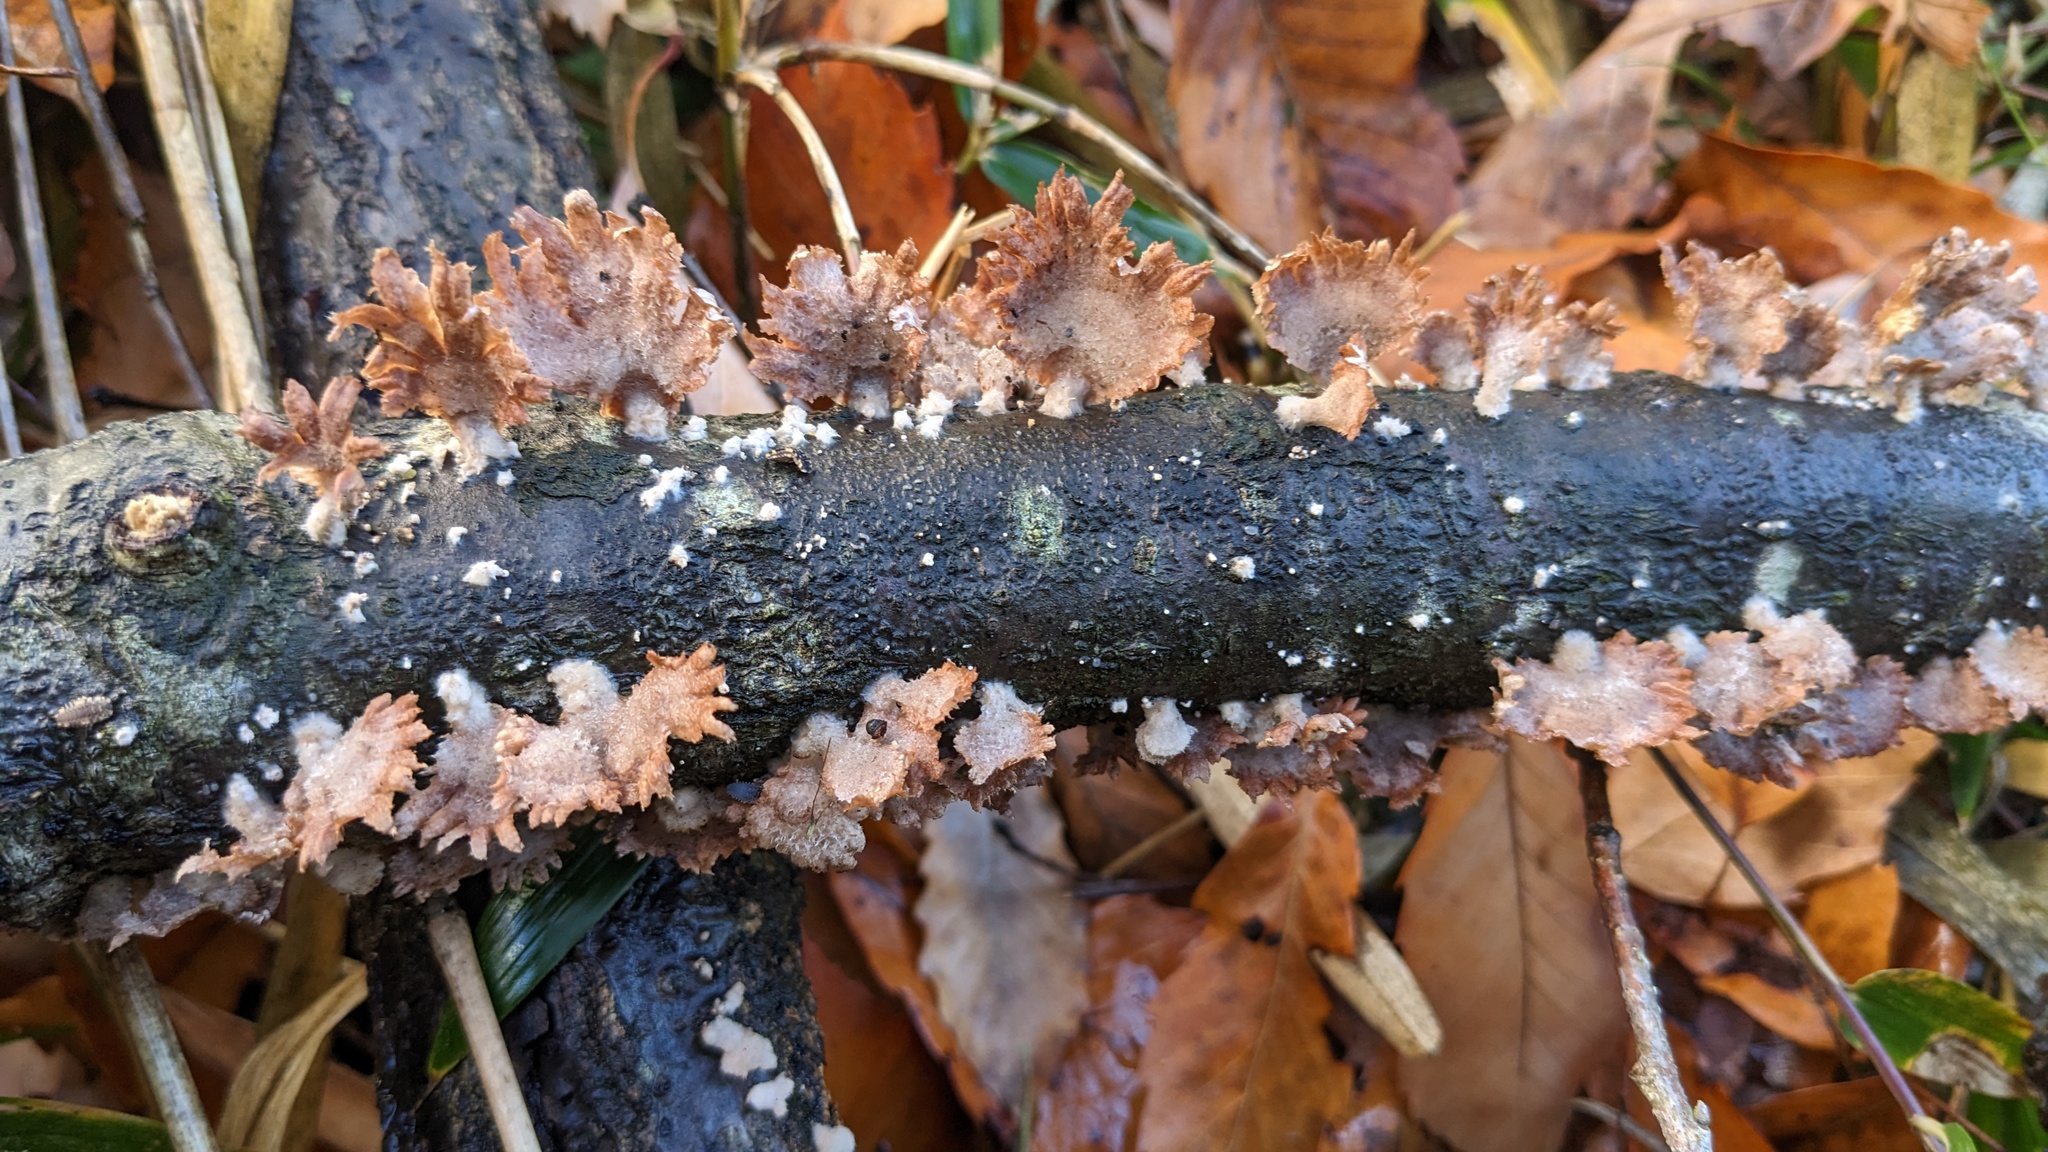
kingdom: Fungi
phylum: Basidiomycota
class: Agaricomycetes
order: Agaricales
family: Schizophyllaceae
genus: Schizophyllum
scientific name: Schizophyllum commune
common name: Common porecrust
